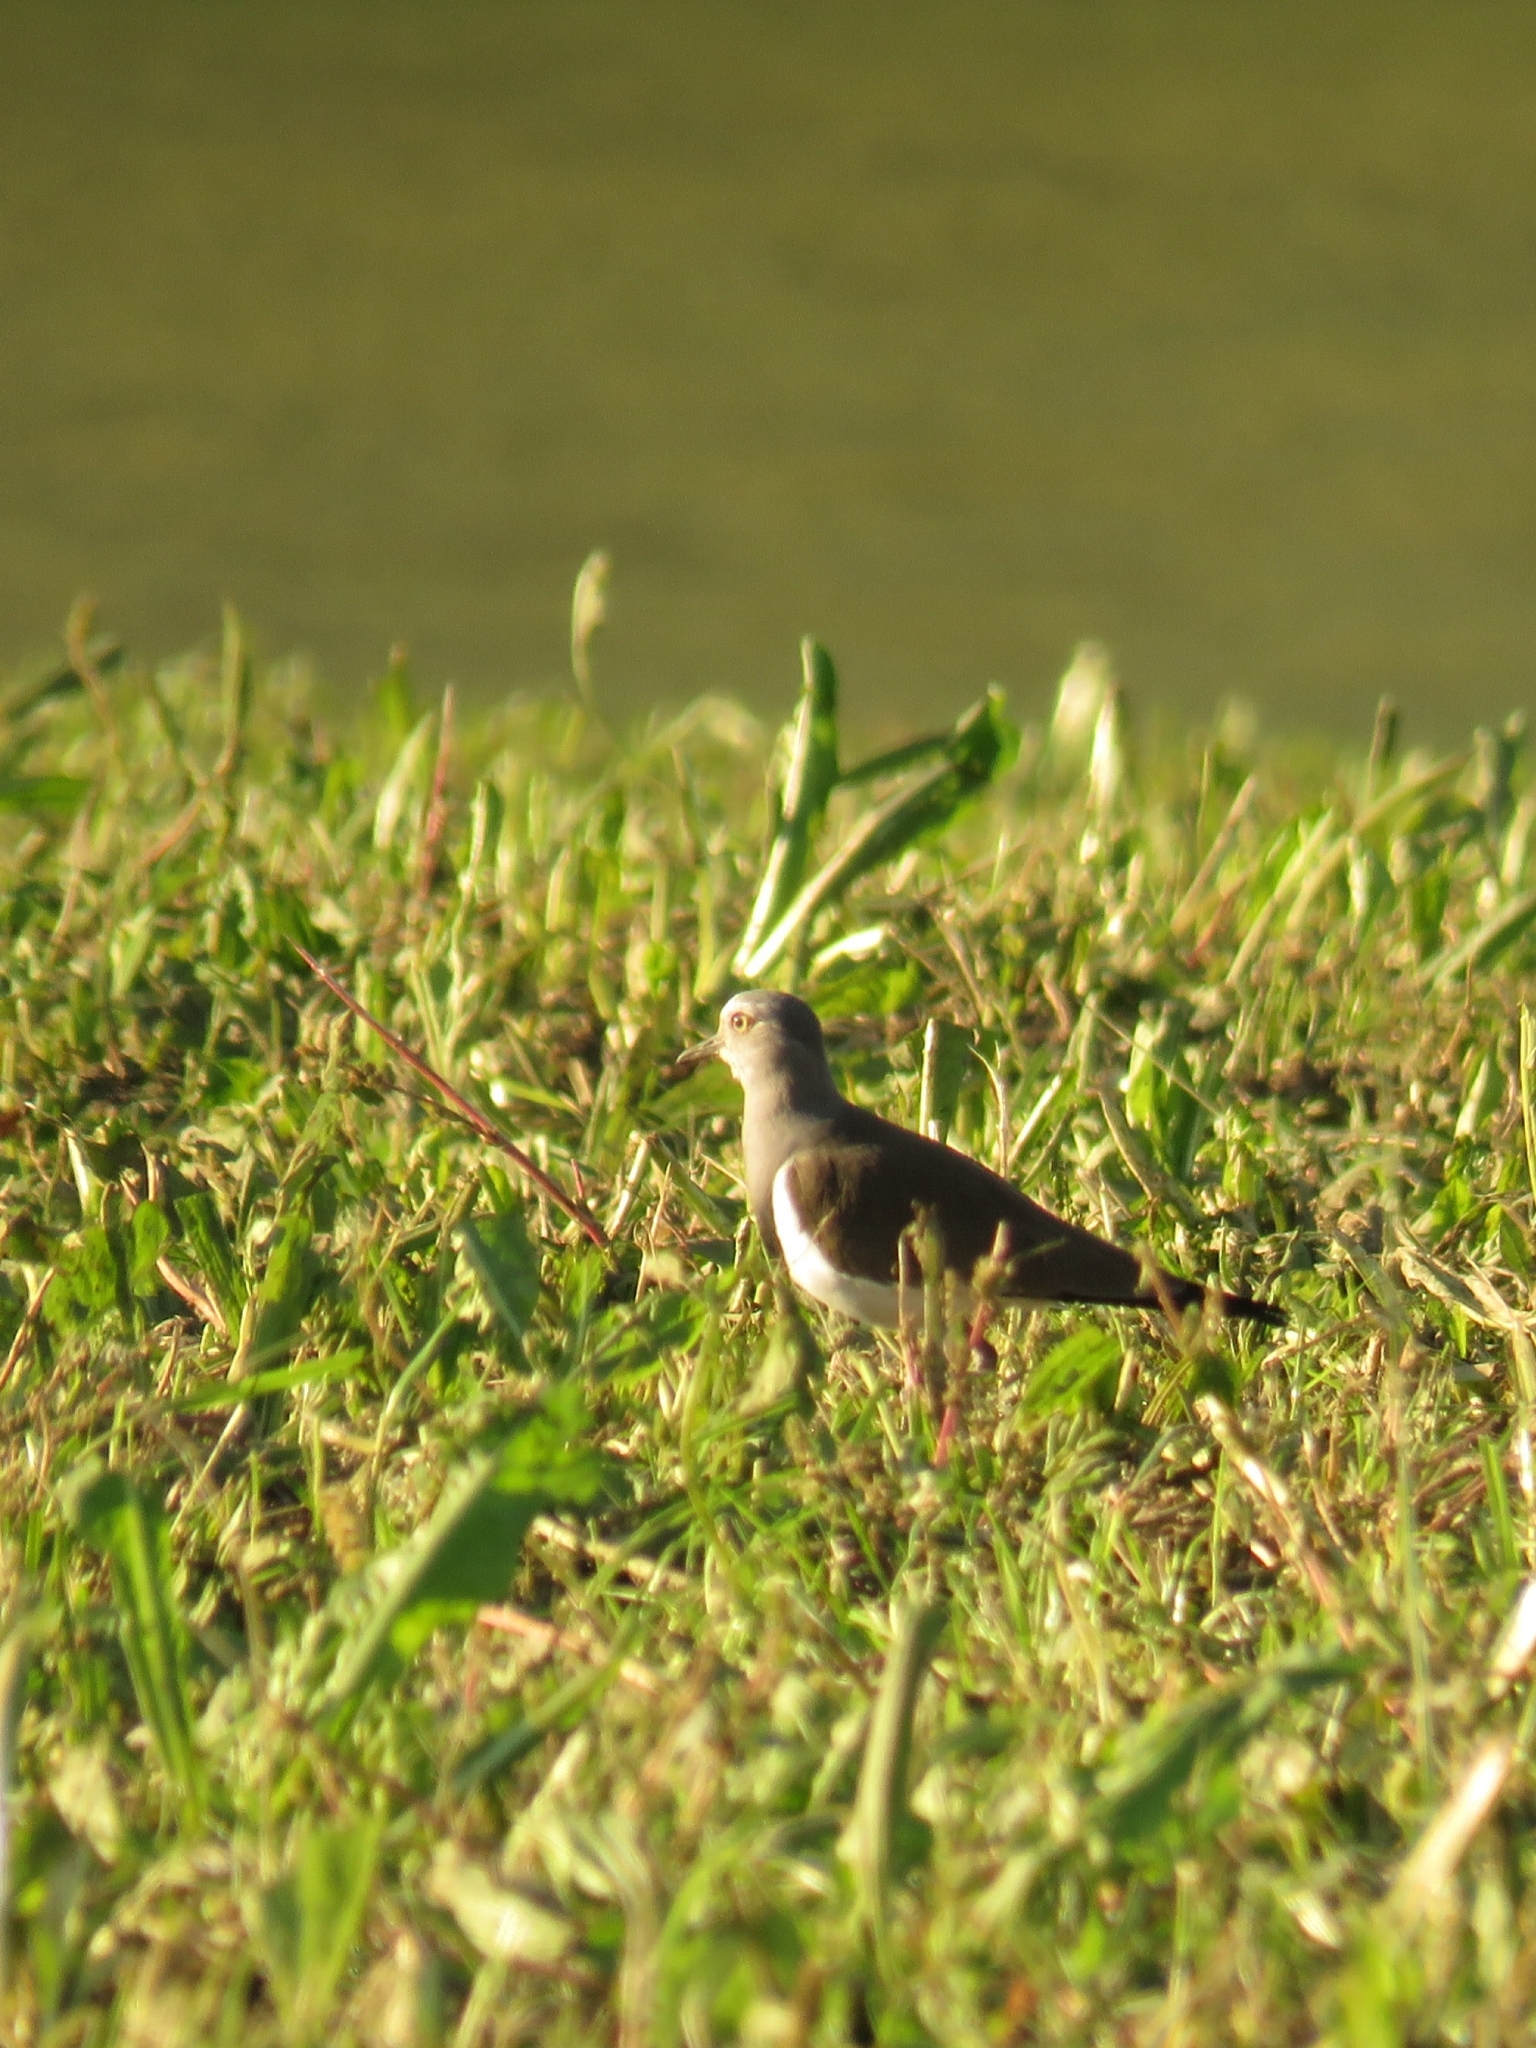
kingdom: Animalia
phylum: Chordata
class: Aves
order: Charadriiformes
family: Charadriidae
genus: Vanellus
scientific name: Vanellus melanopterus
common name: Black-winged lapwing
